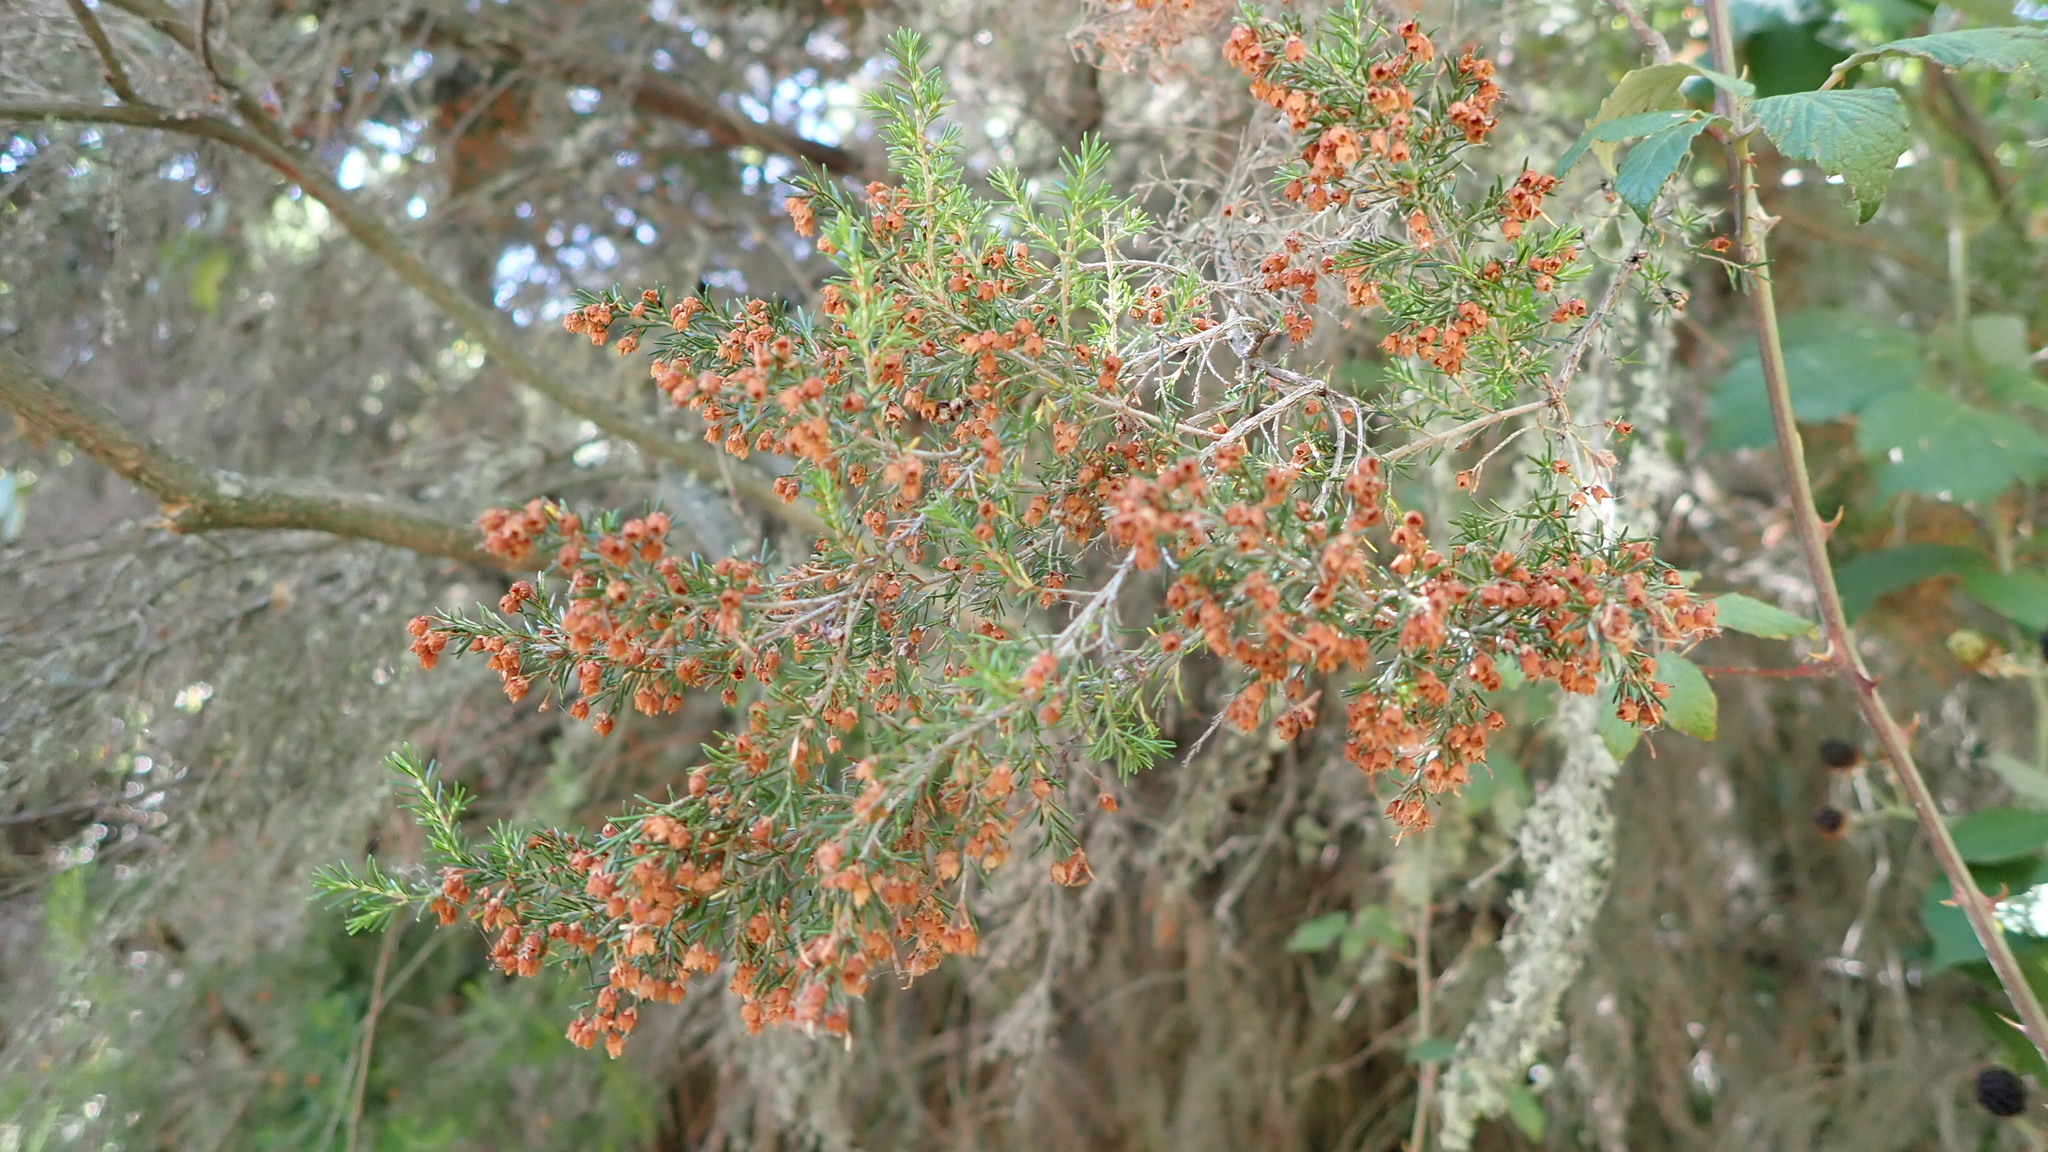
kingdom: Plantae
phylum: Tracheophyta
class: Magnoliopsida
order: Ericales
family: Ericaceae
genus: Erica
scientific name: Erica arborea
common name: Tree heath
